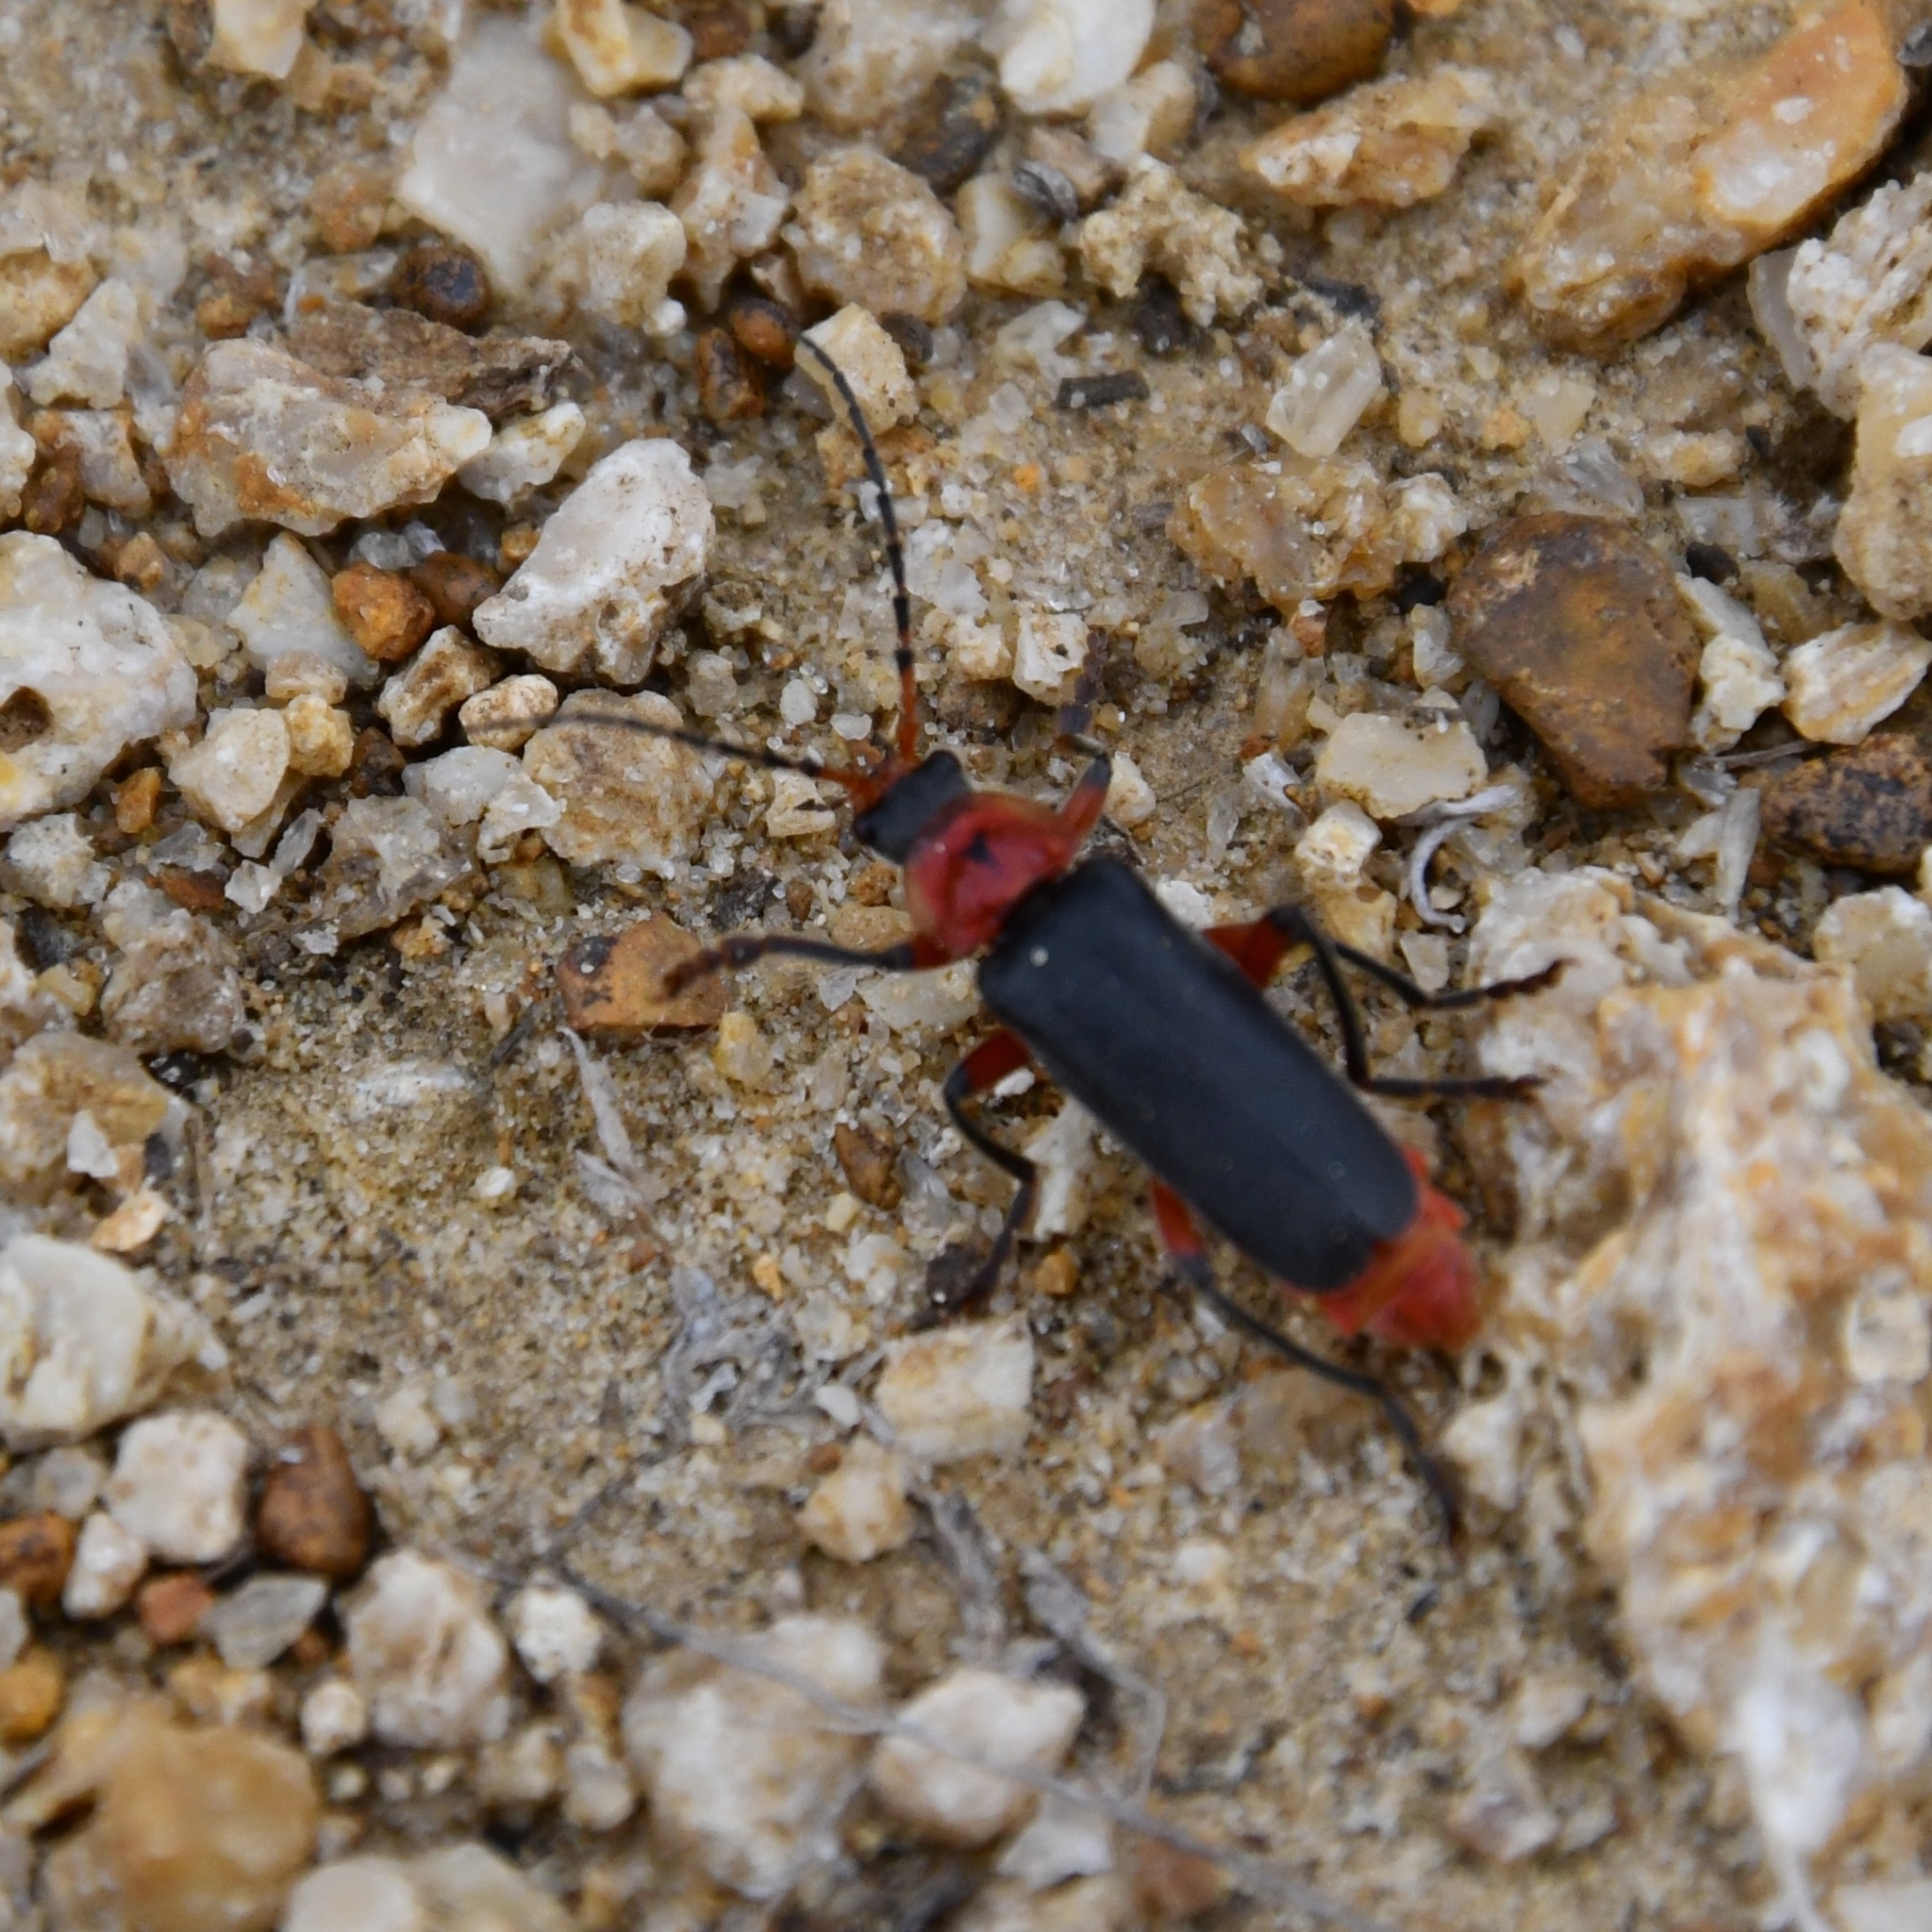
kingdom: Animalia
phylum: Arthropoda
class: Insecta
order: Coleoptera
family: Cantharidae
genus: Cantharis
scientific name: Cantharis rustica
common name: Soldier beetle
